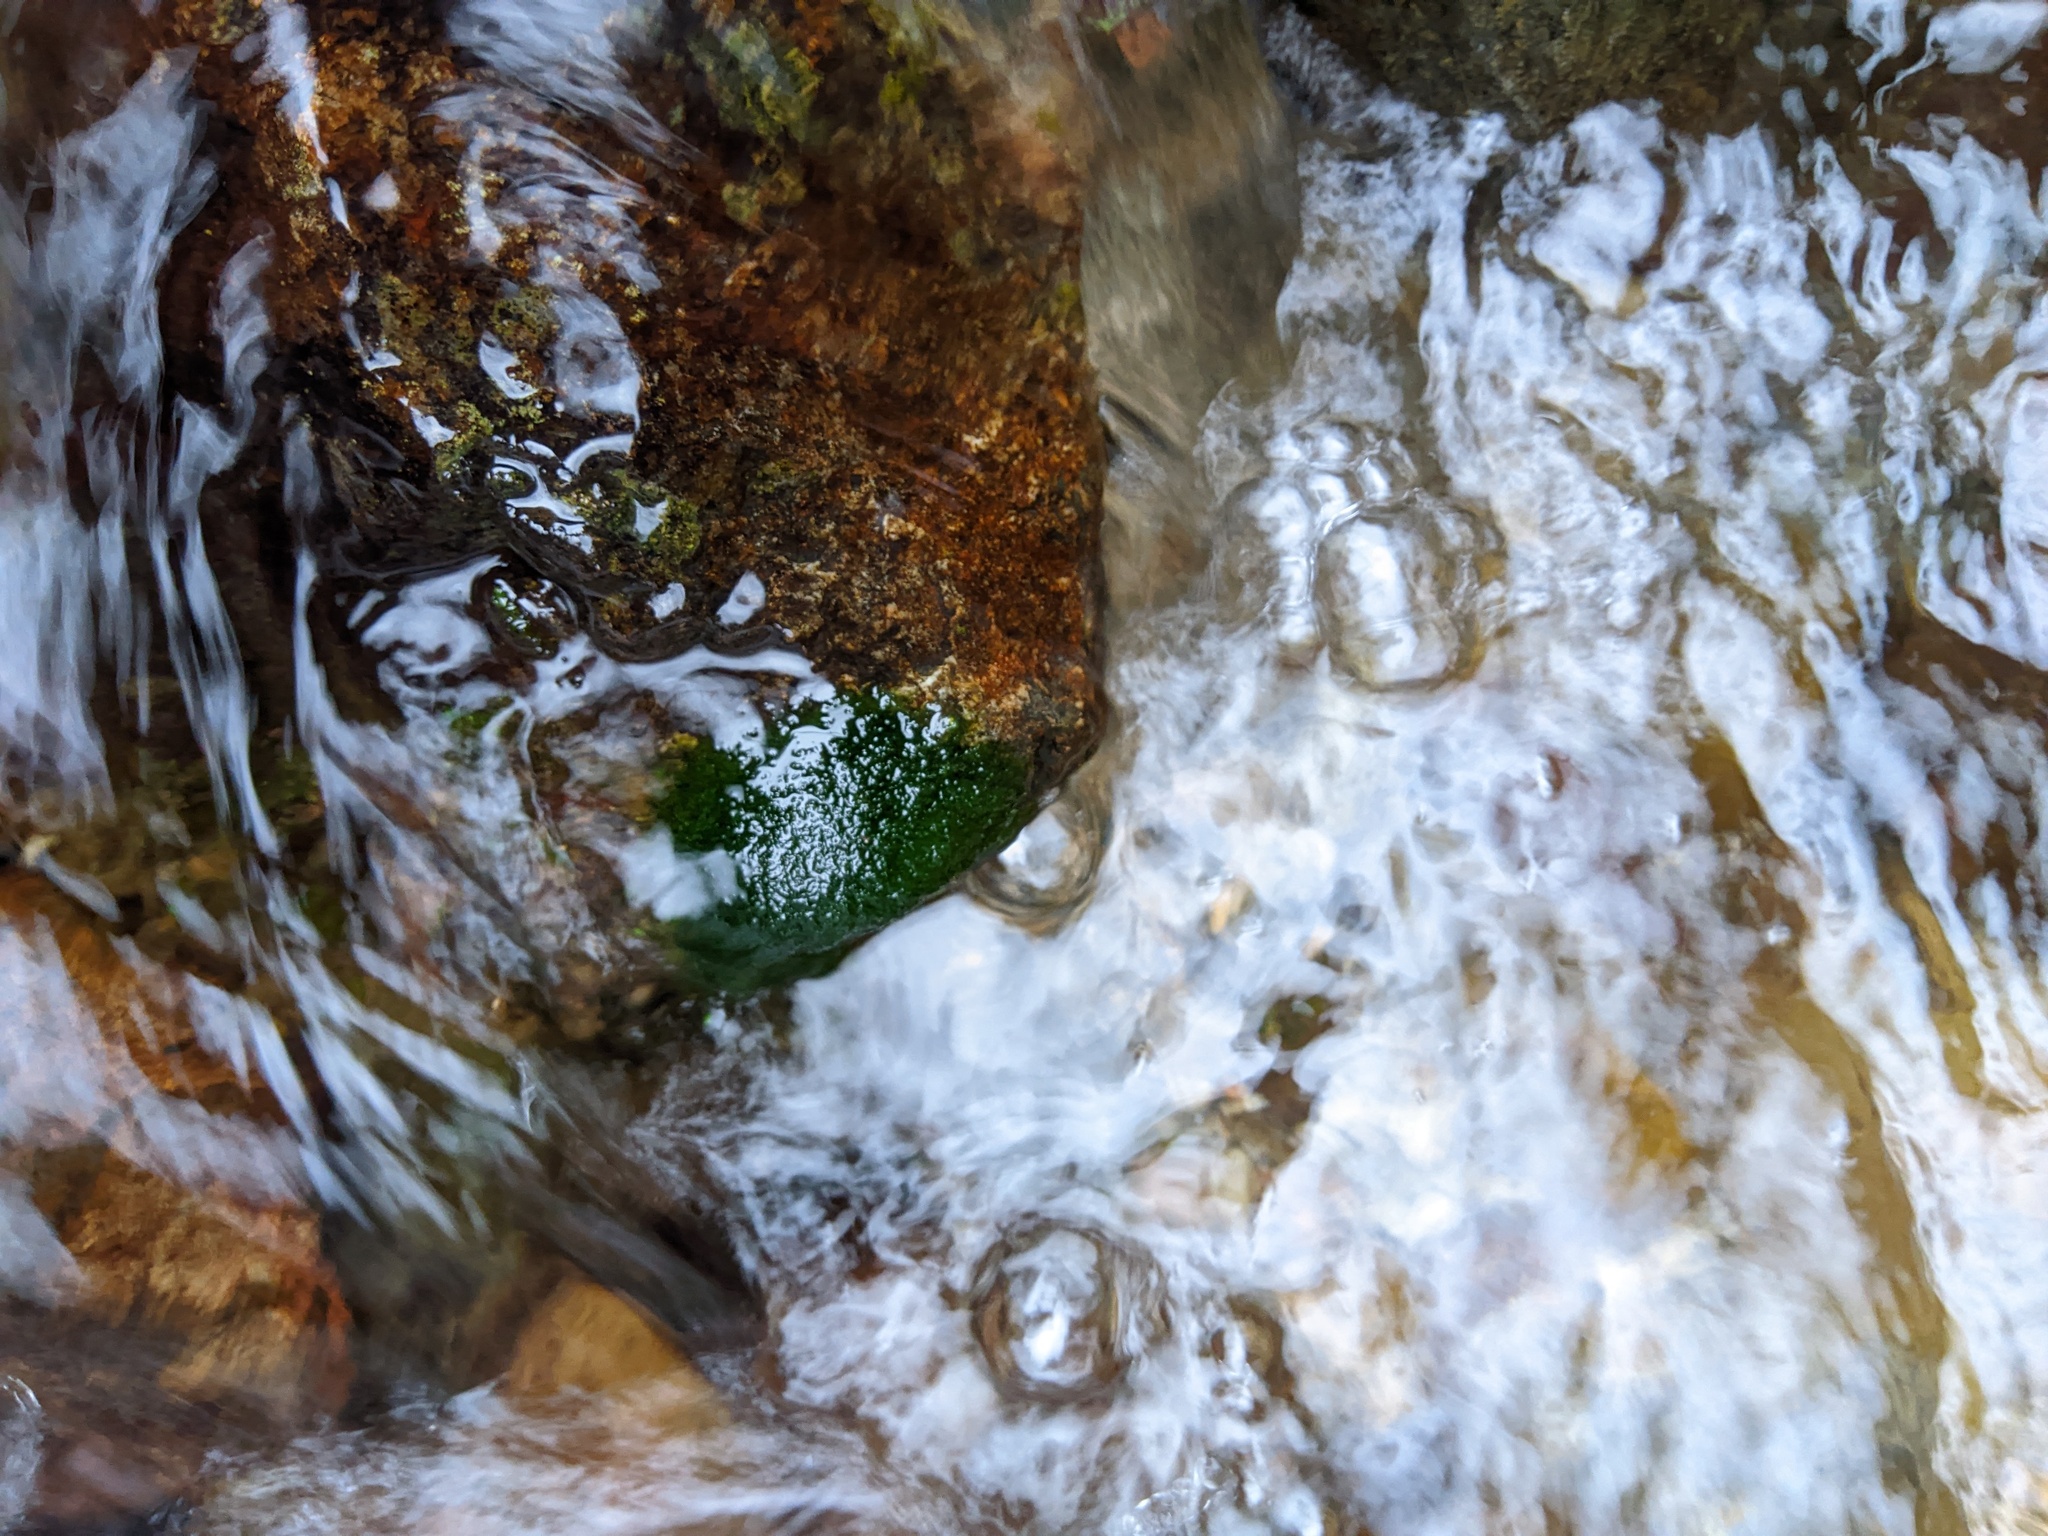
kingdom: Chromista
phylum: Ochrophyta
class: Xanthophyceae
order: Vaucheriales
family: Vaucheriaceae
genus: Vaucheria
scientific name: Vaucheria
